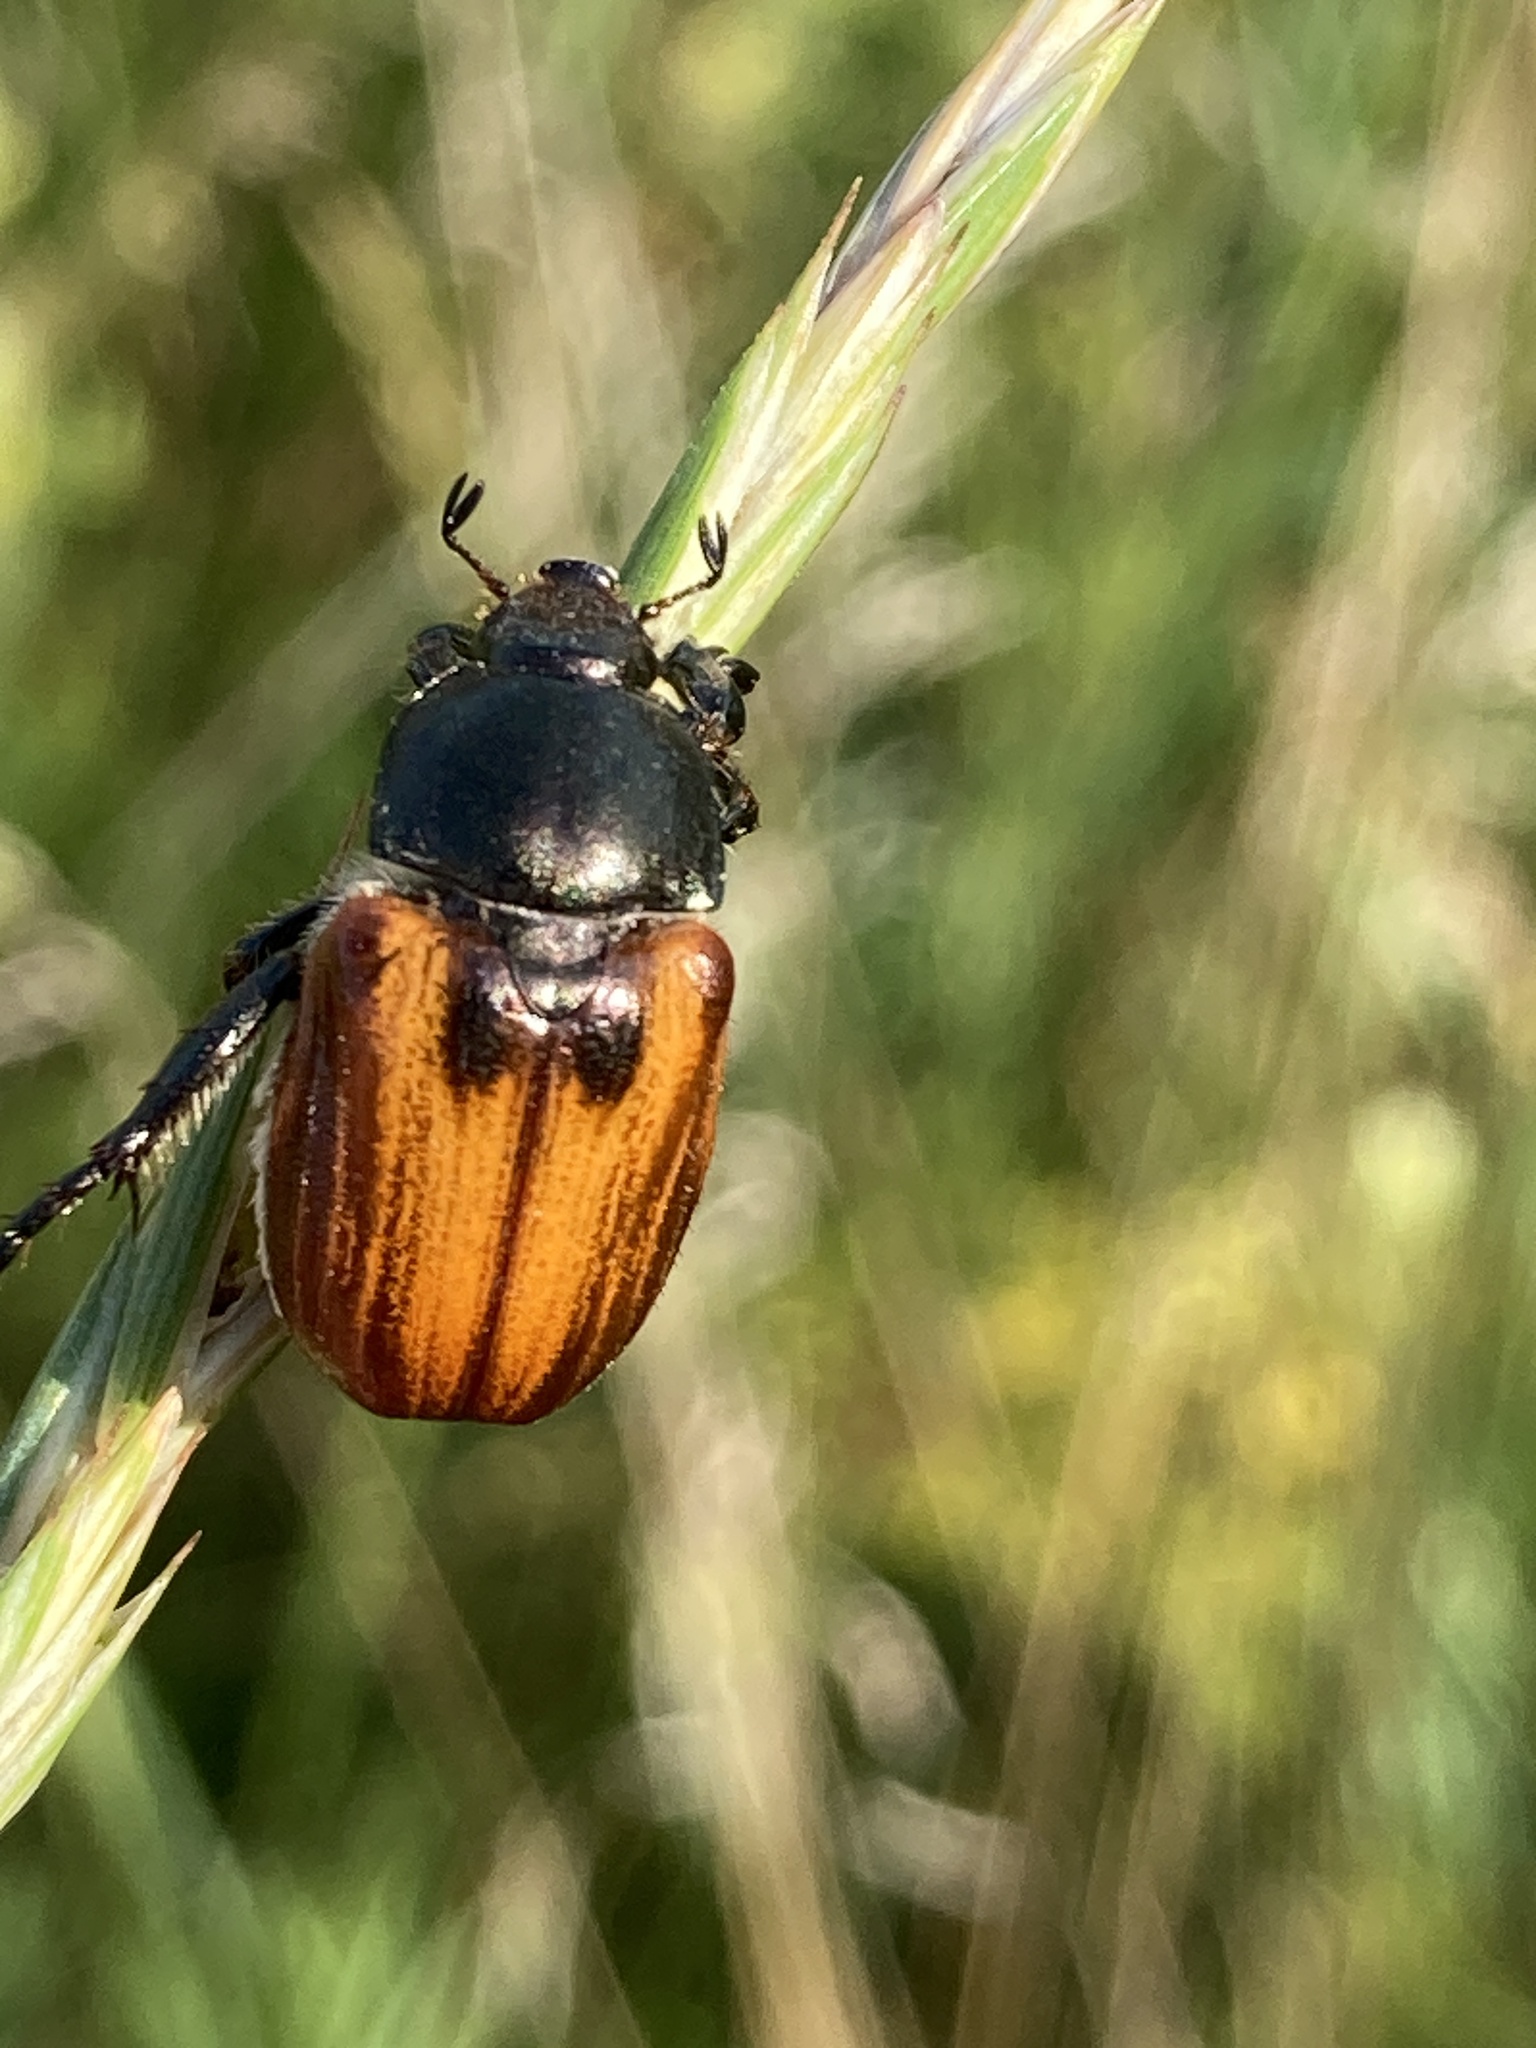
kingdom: Animalia
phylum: Arthropoda
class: Insecta
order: Coleoptera
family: Scarabaeidae
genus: Anisoplia
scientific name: Anisoplia austriaca
